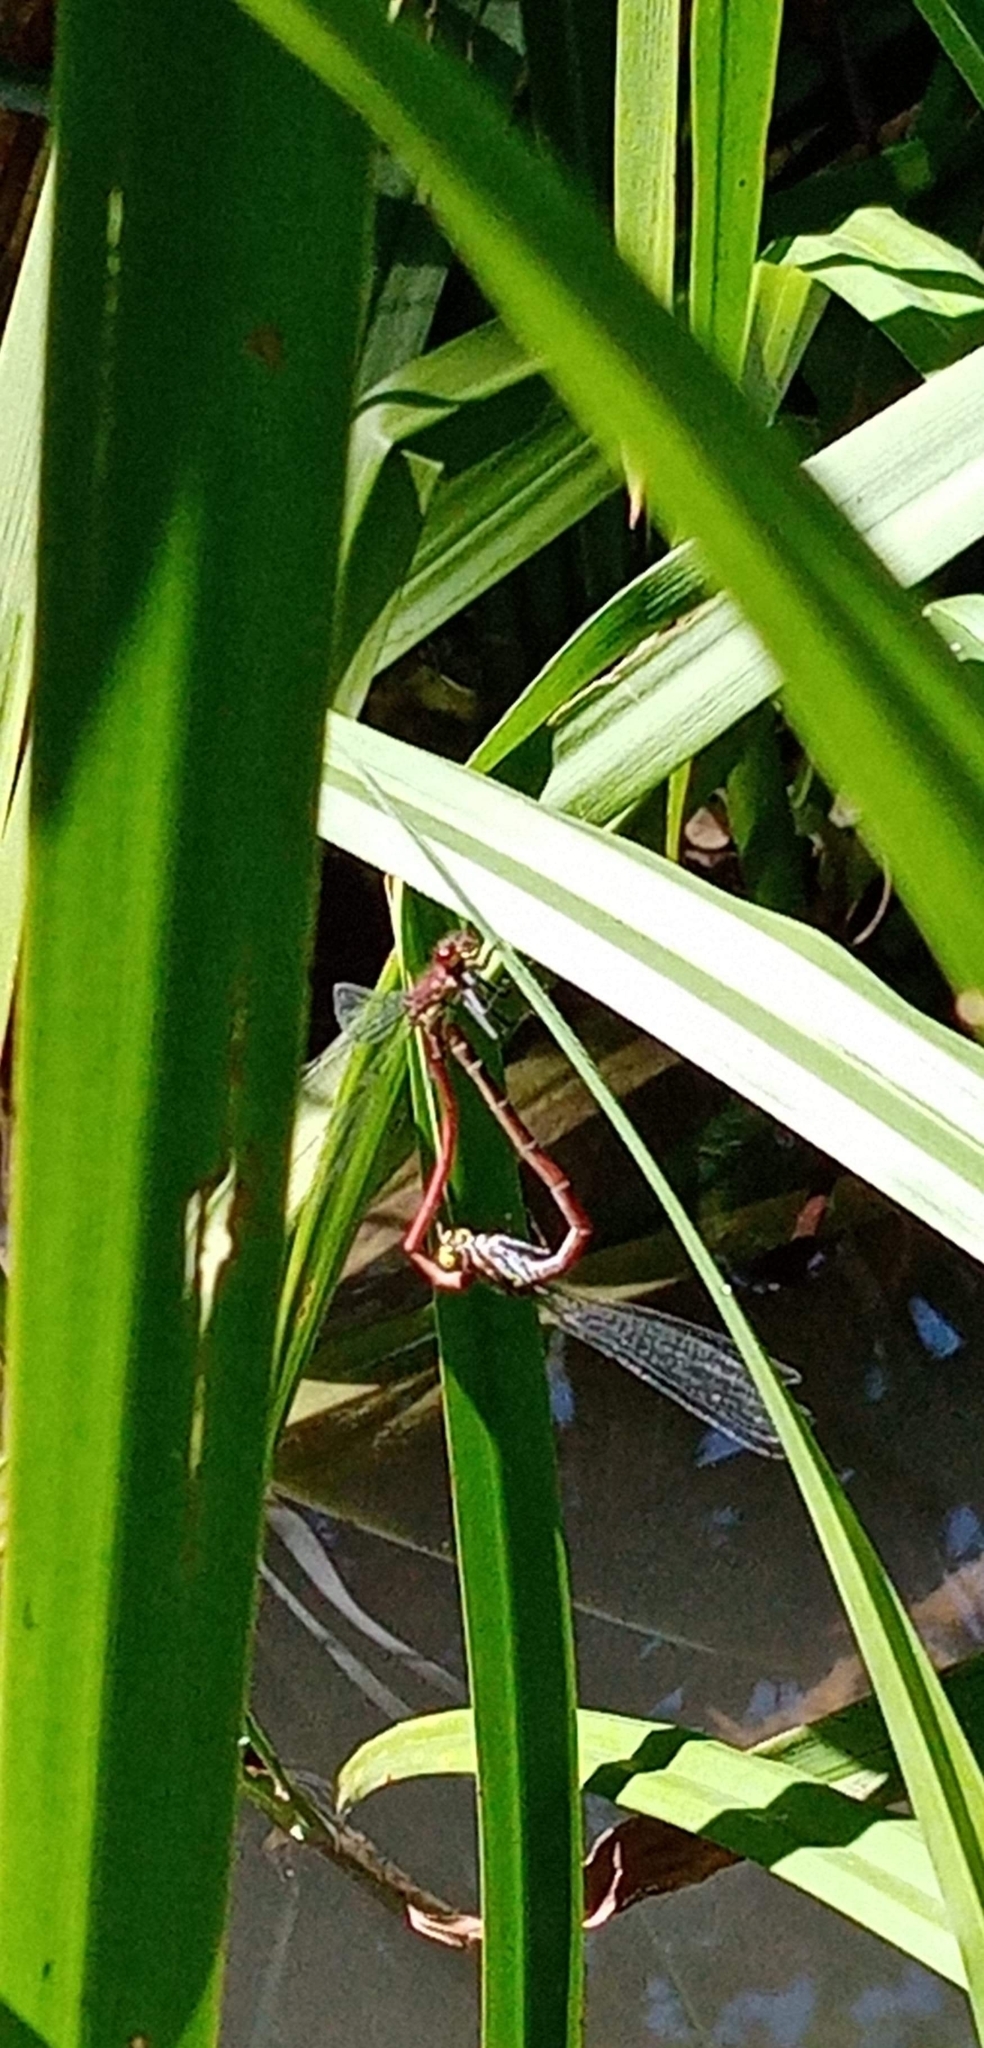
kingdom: Animalia
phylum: Arthropoda
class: Insecta
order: Odonata
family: Coenagrionidae
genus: Pyrrhosoma
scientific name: Pyrrhosoma nymphula
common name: Large red damsel
